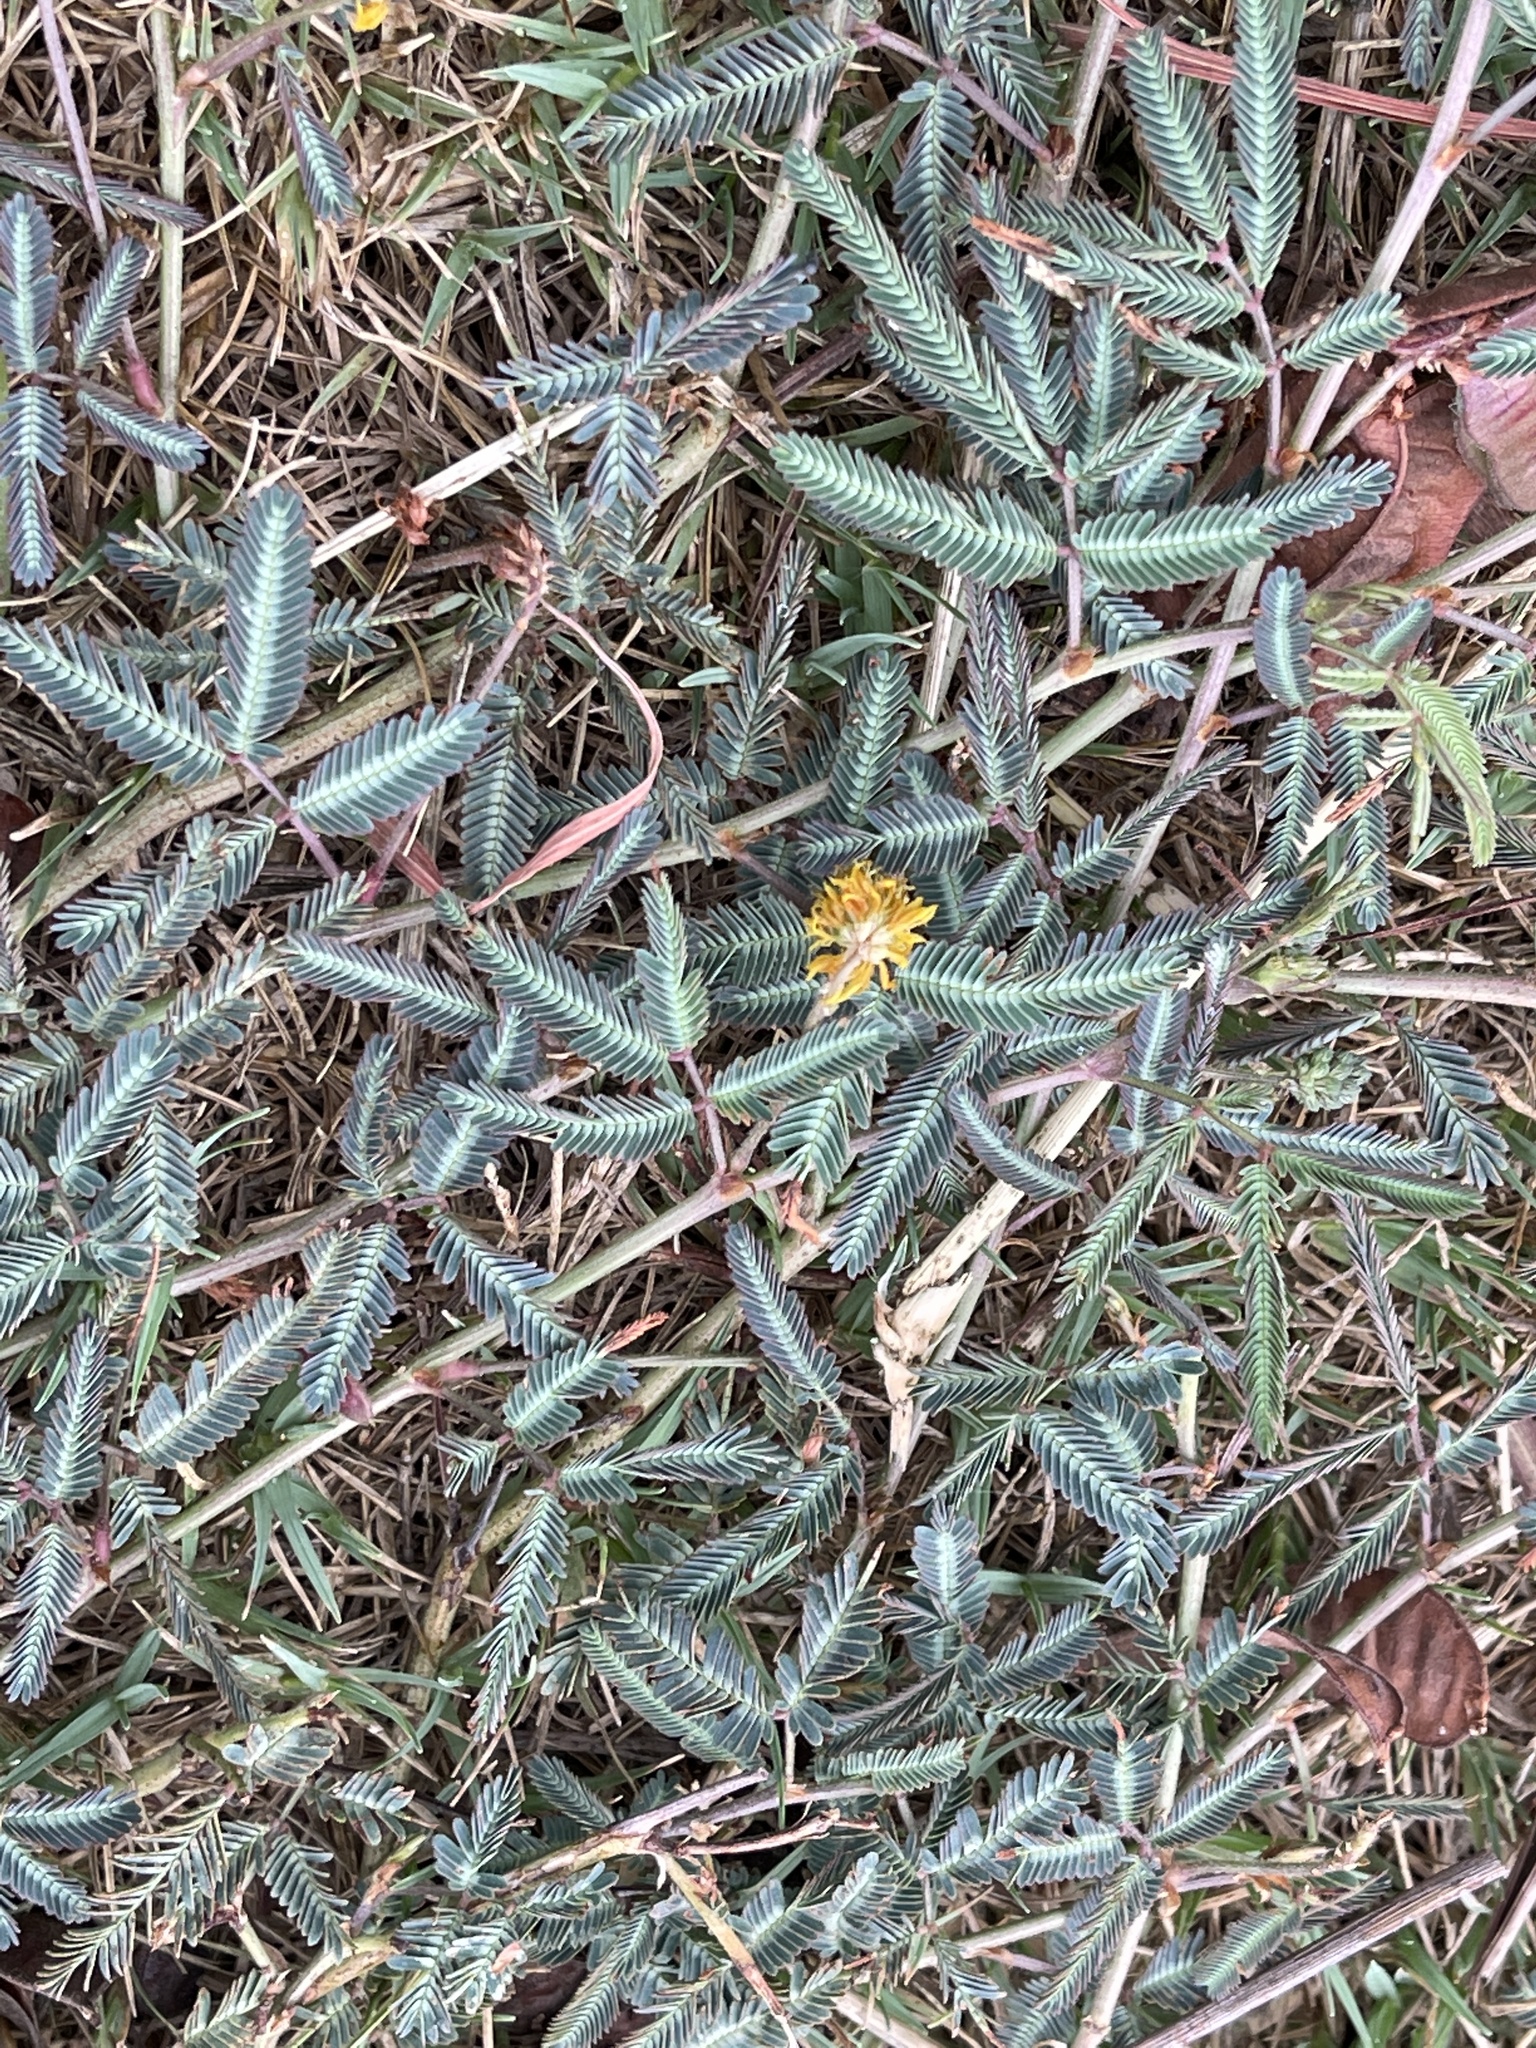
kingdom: Plantae
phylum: Tracheophyta
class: Magnoliopsida
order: Fabales
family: Fabaceae
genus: Neptunia
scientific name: Neptunia pubescens
